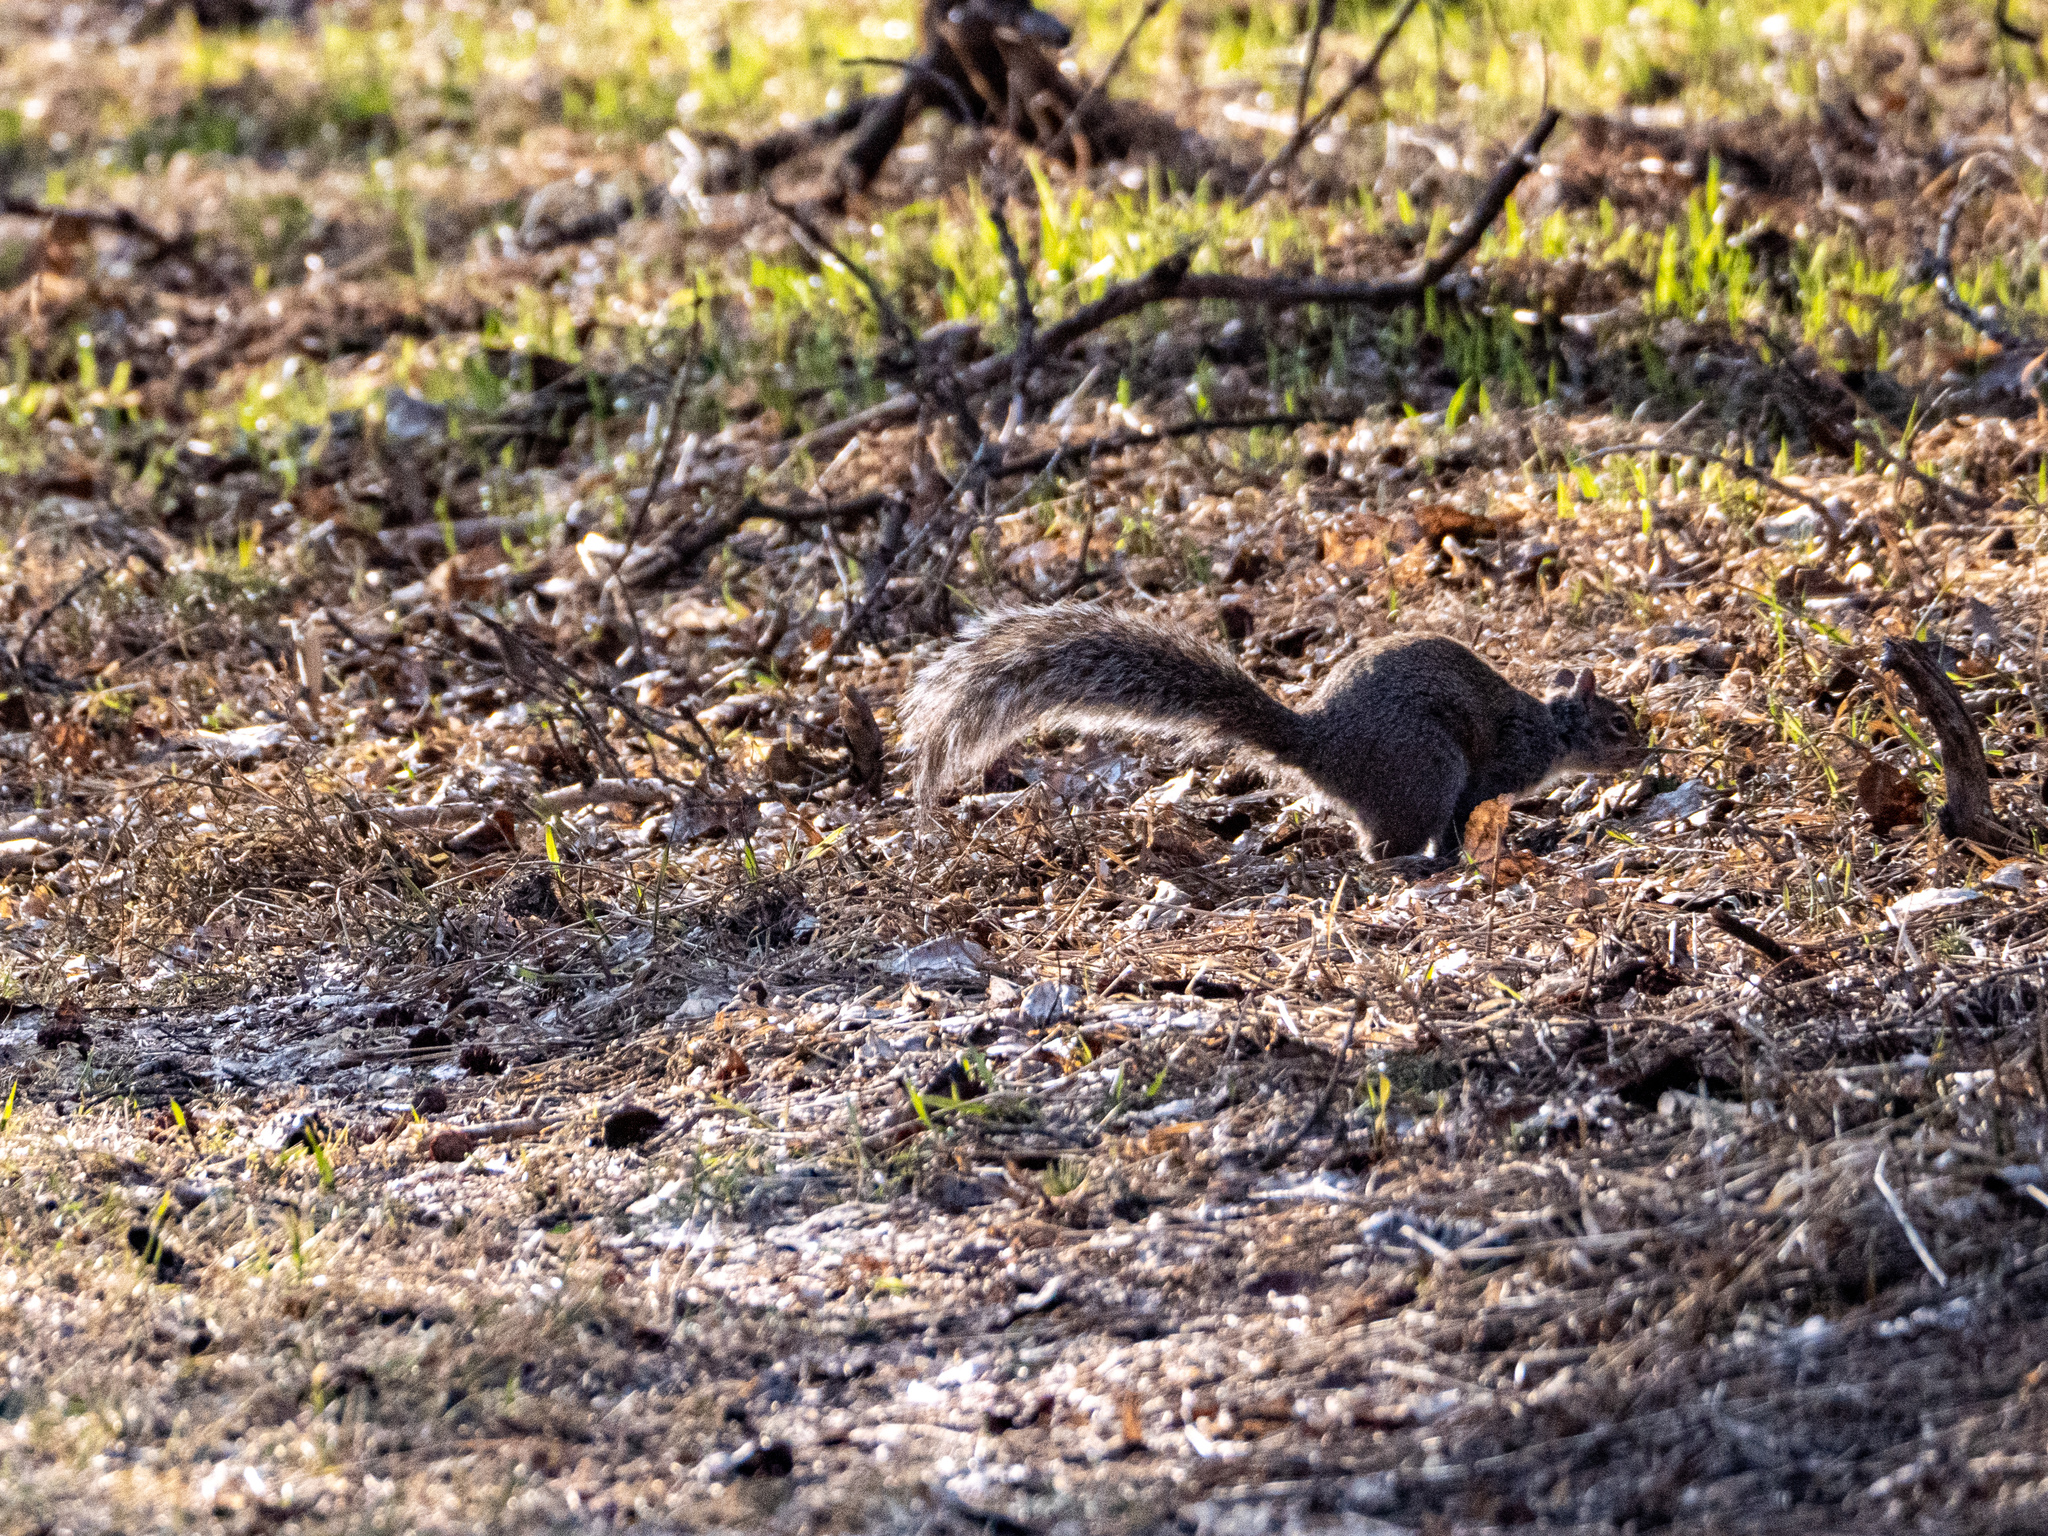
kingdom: Animalia
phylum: Chordata
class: Mammalia
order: Rodentia
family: Sciuridae
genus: Sciurus
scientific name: Sciurus carolinensis
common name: Eastern gray squirrel
